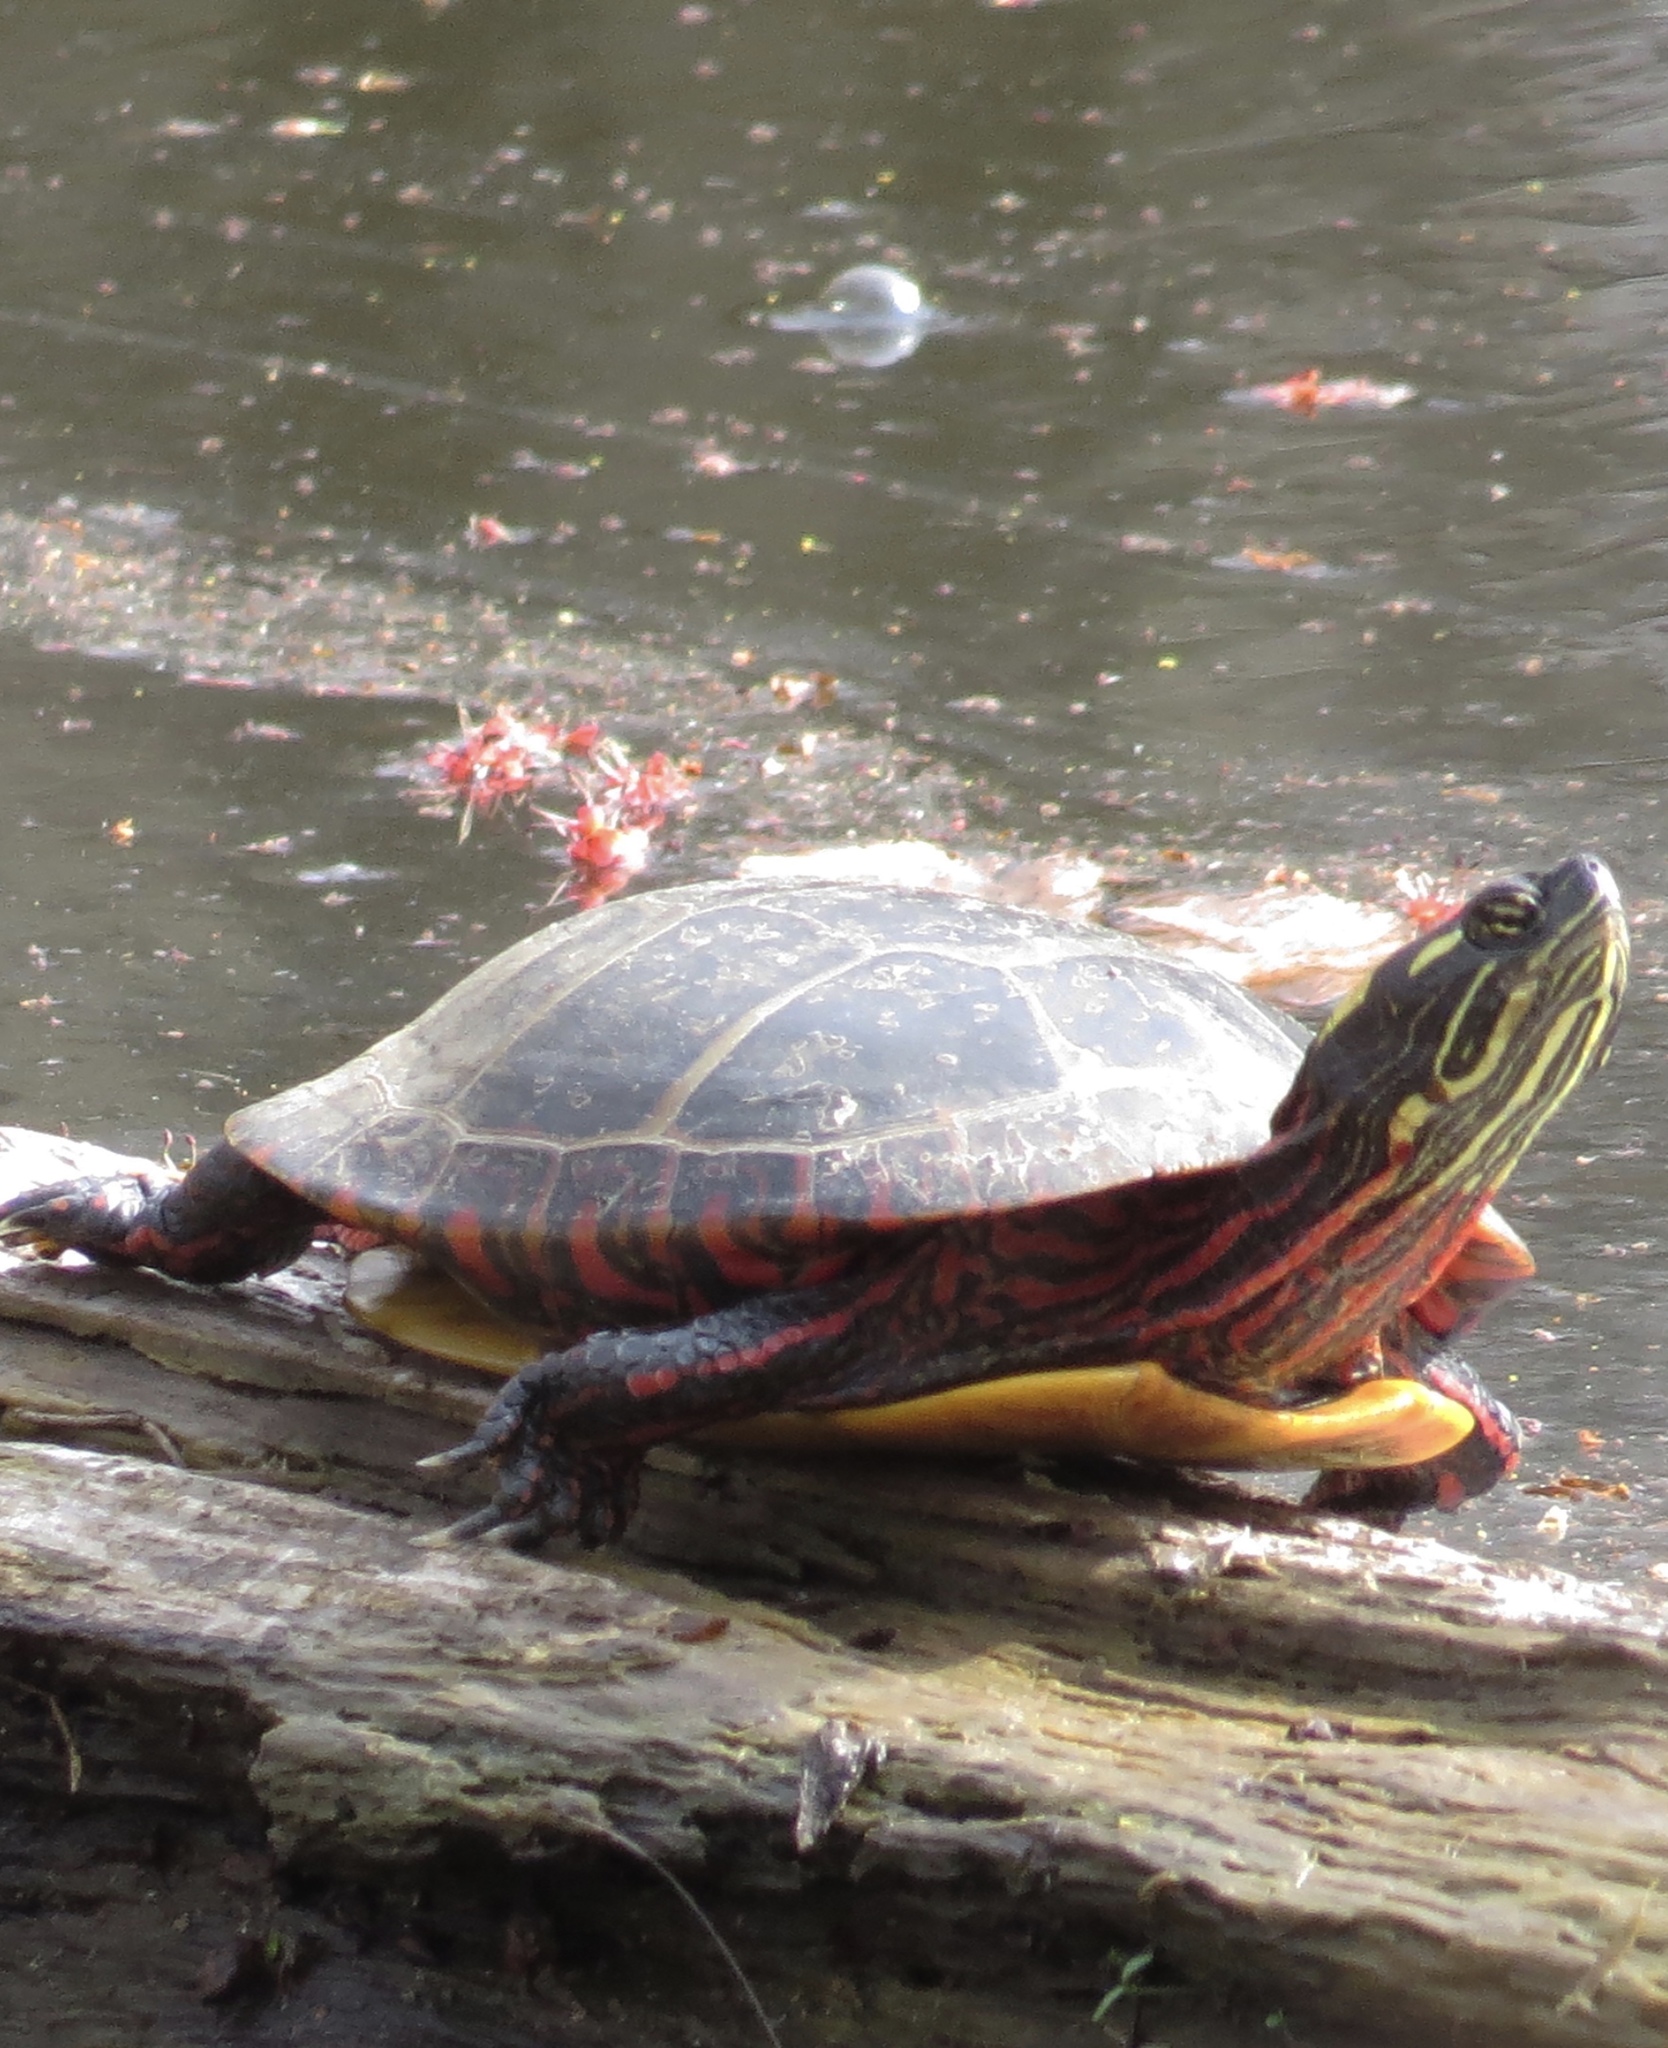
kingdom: Animalia
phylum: Chordata
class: Testudines
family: Emydidae
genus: Chrysemys
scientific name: Chrysemys picta
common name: Painted turtle
